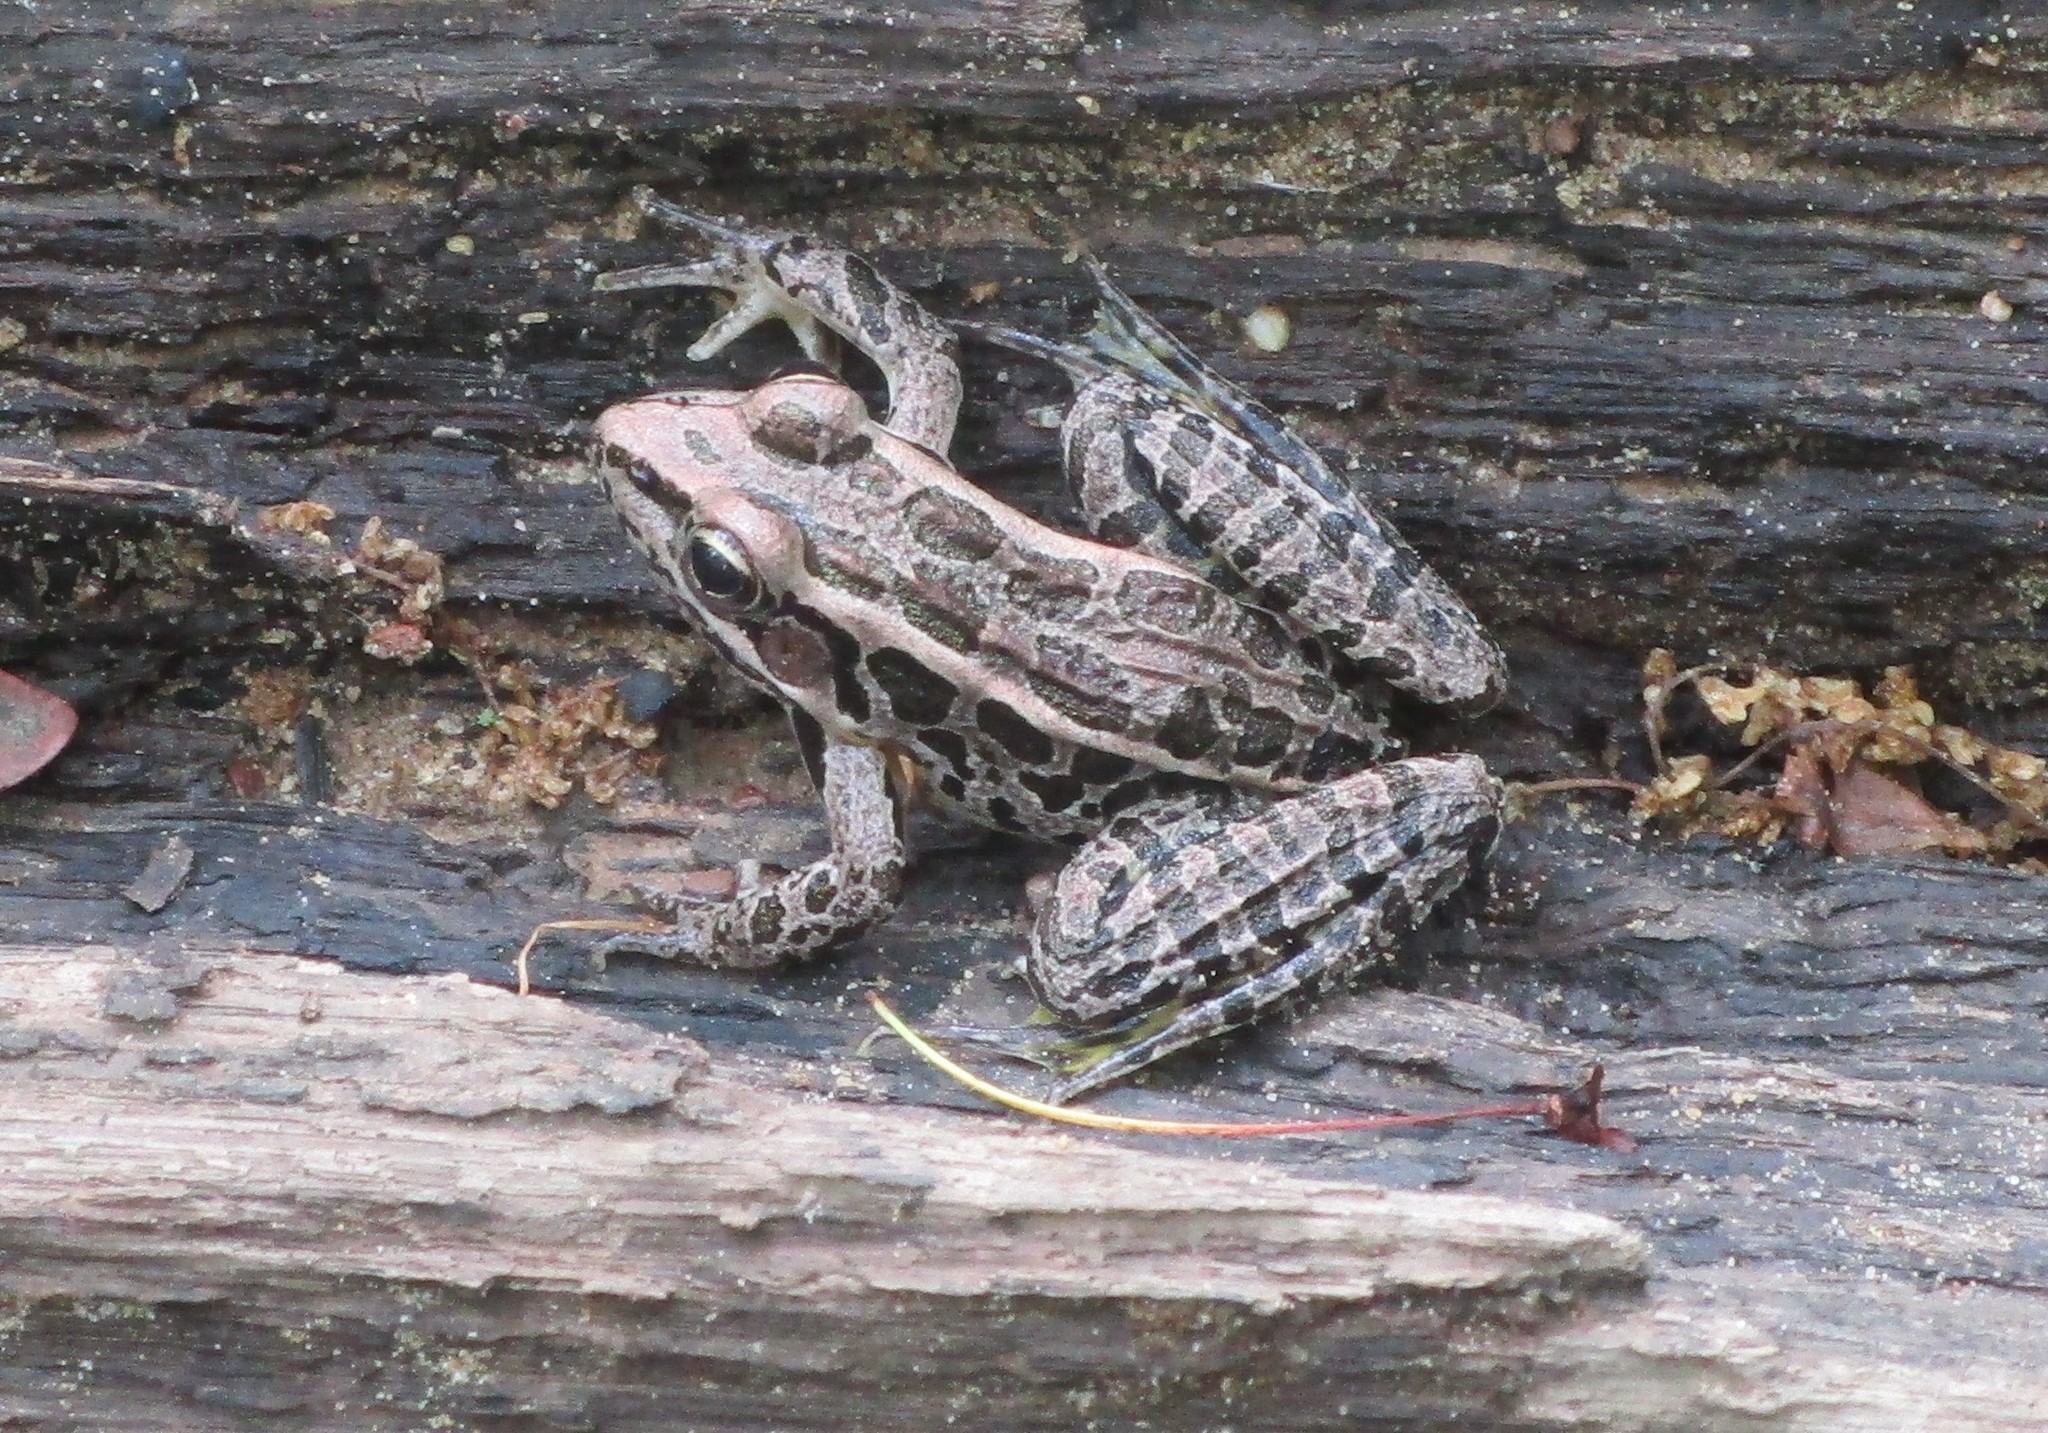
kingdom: Animalia
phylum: Chordata
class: Amphibia
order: Anura
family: Ranidae
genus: Lithobates
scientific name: Lithobates palustris
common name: Pickerel frog
